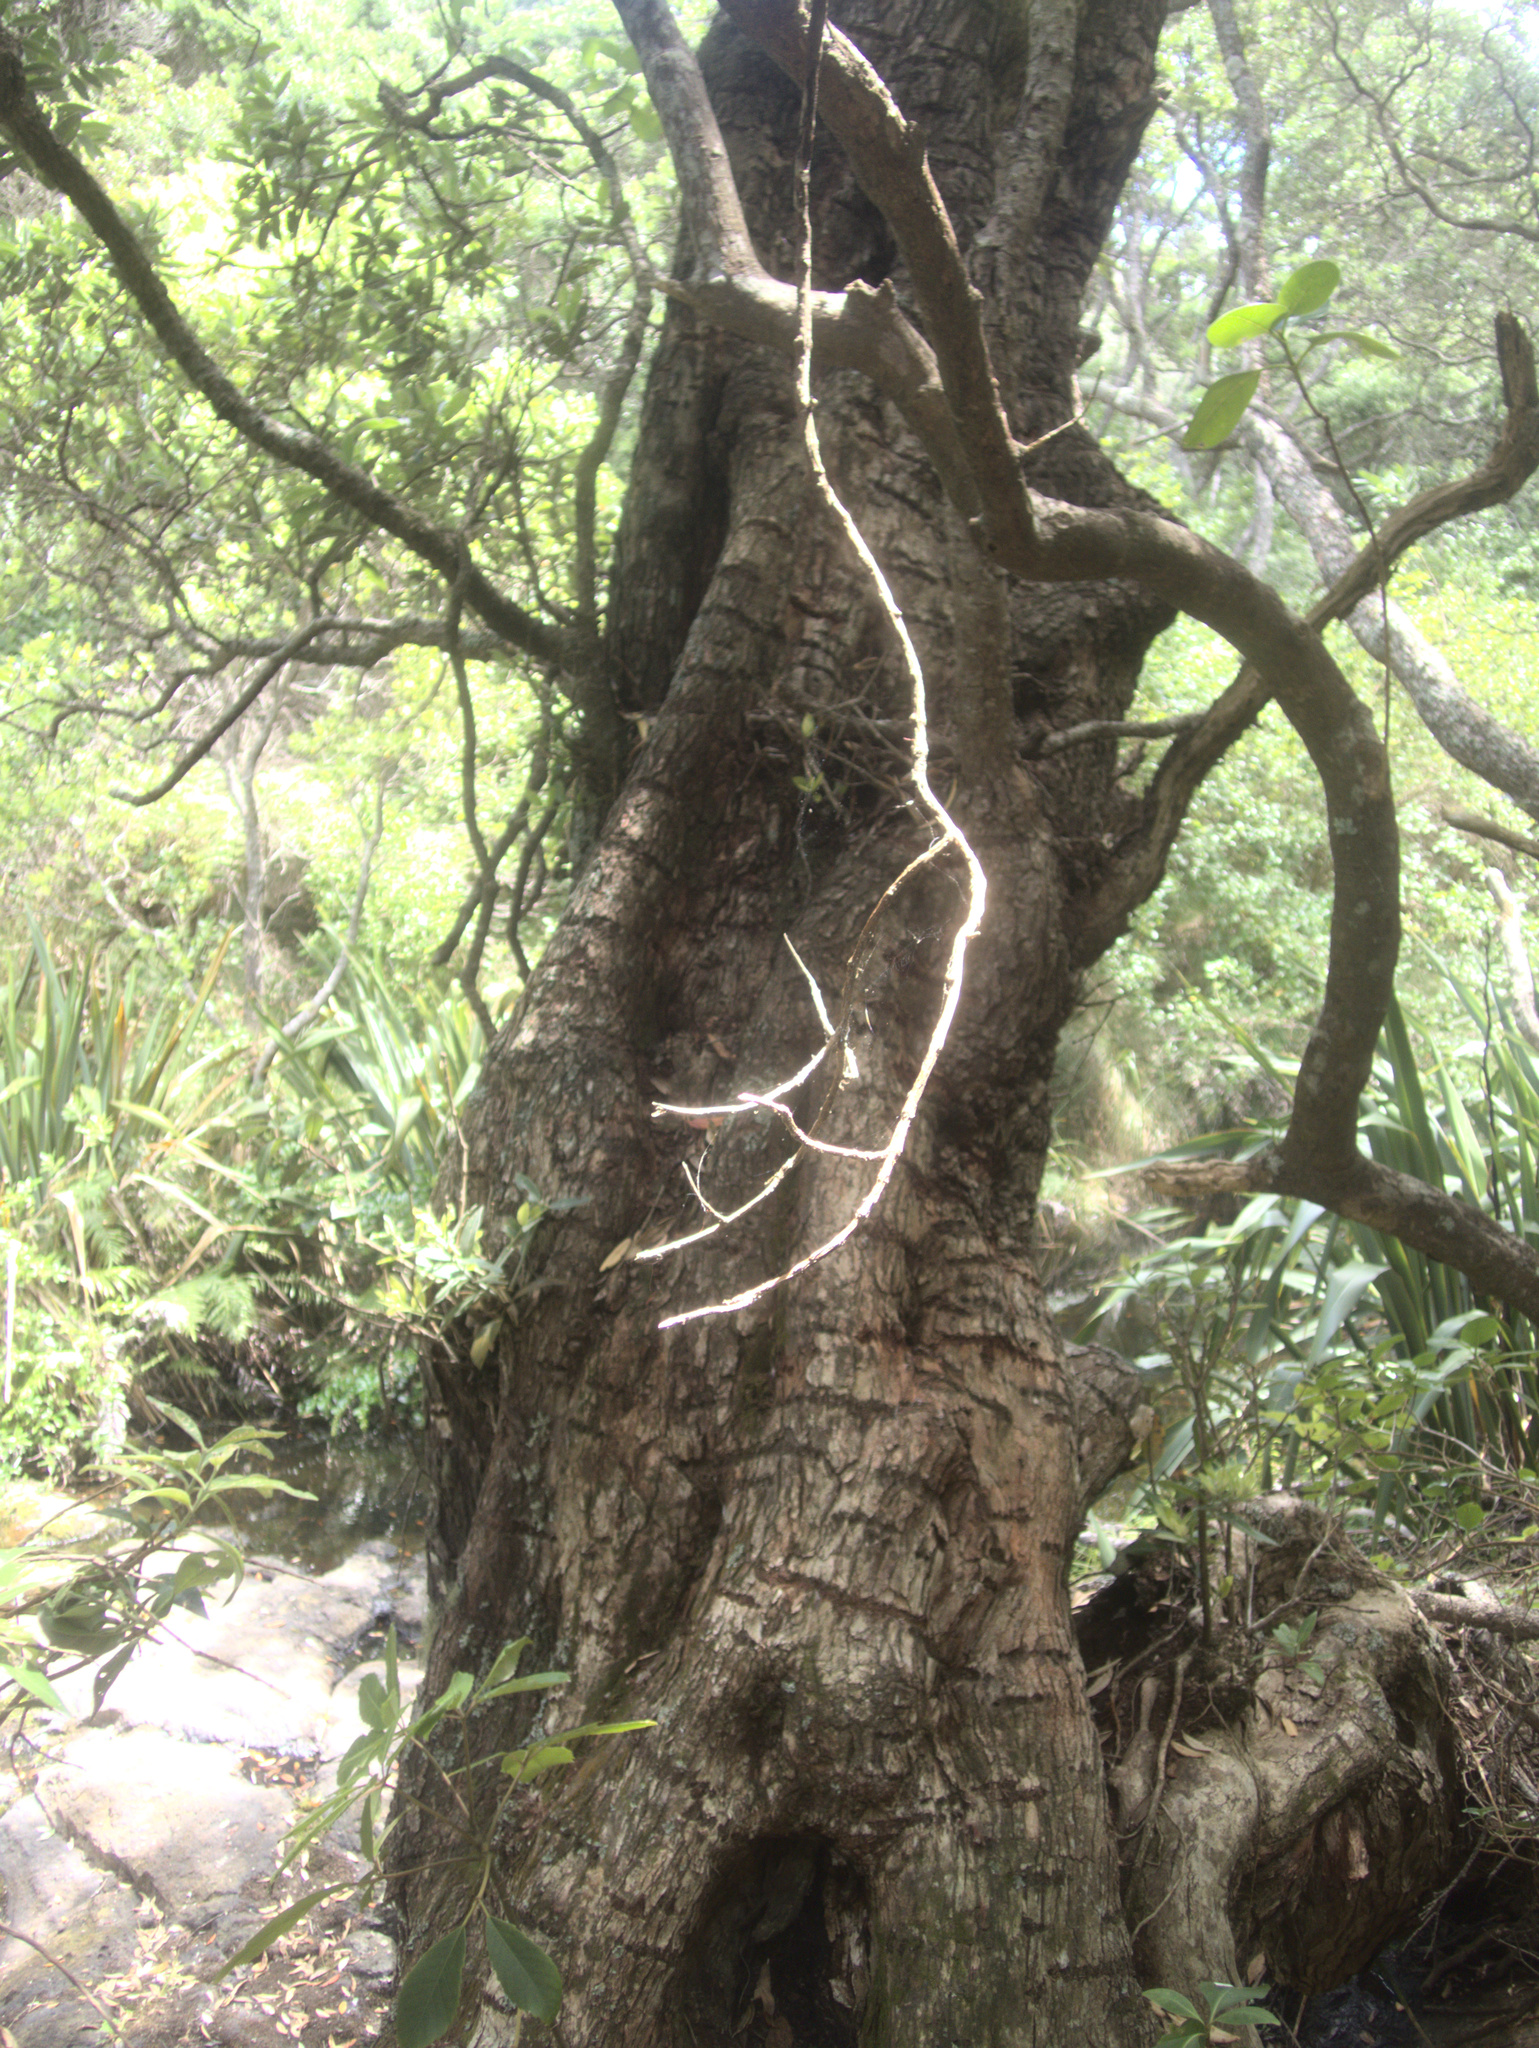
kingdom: Plantae
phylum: Tracheophyta
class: Magnoliopsida
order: Myrtales
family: Myrtaceae
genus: Metrosideros
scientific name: Metrosideros excelsa
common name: New zealand christmastree
